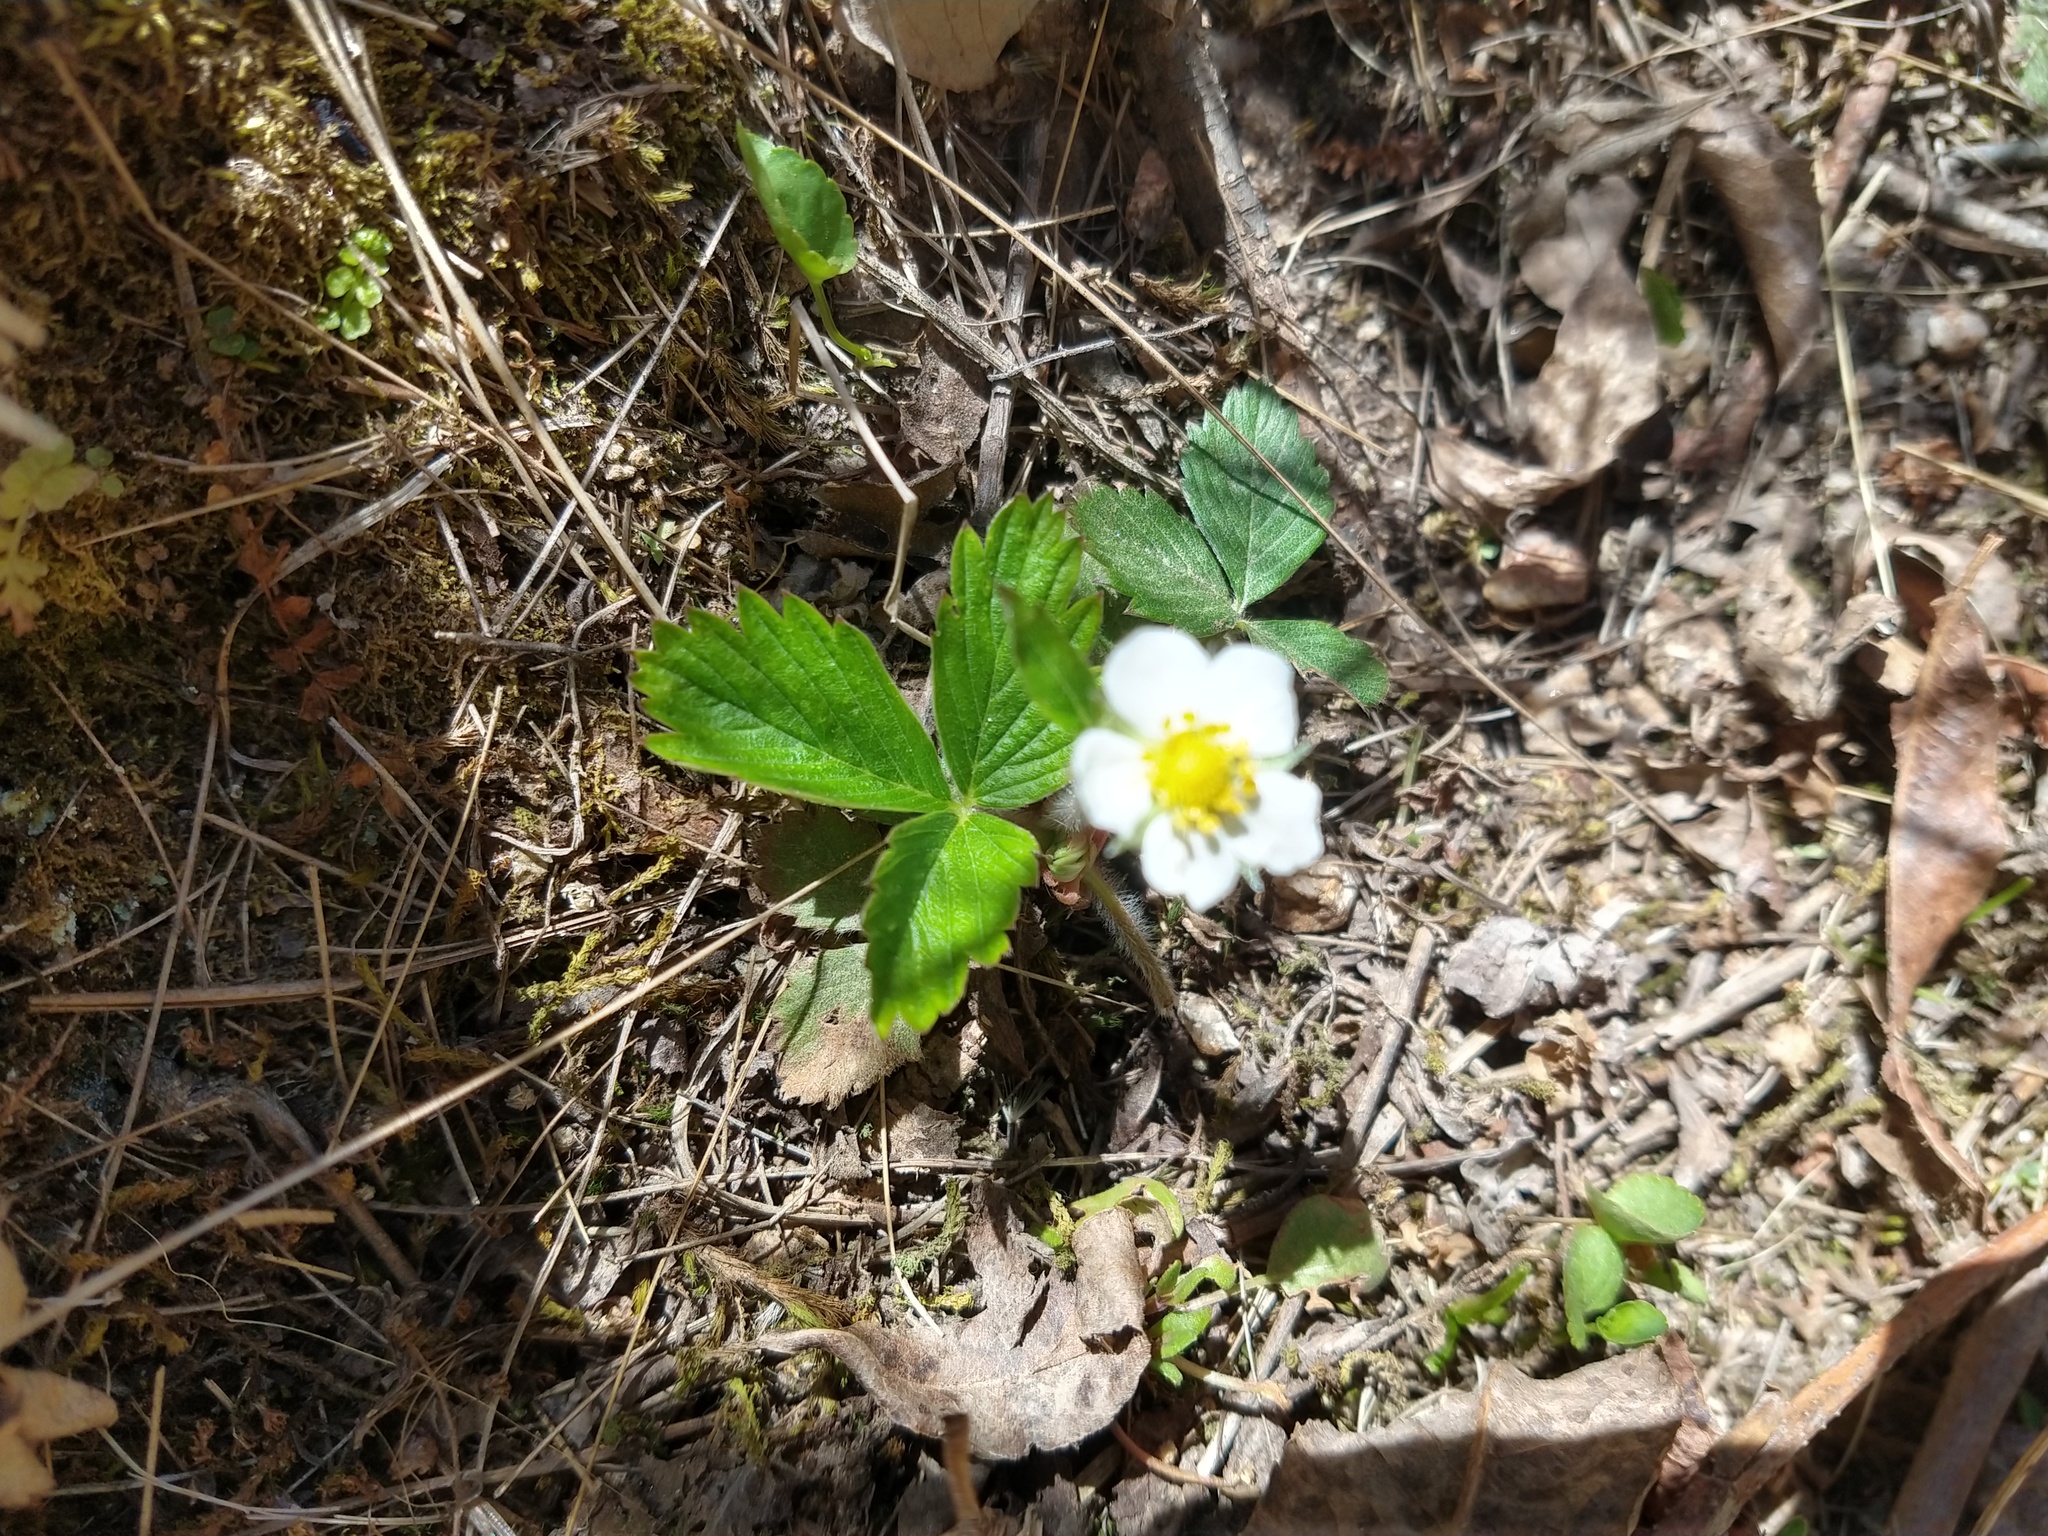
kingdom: Plantae
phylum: Tracheophyta
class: Magnoliopsida
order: Rosales
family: Rosaceae
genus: Fragaria
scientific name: Fragaria vesca
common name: Wild strawberry
